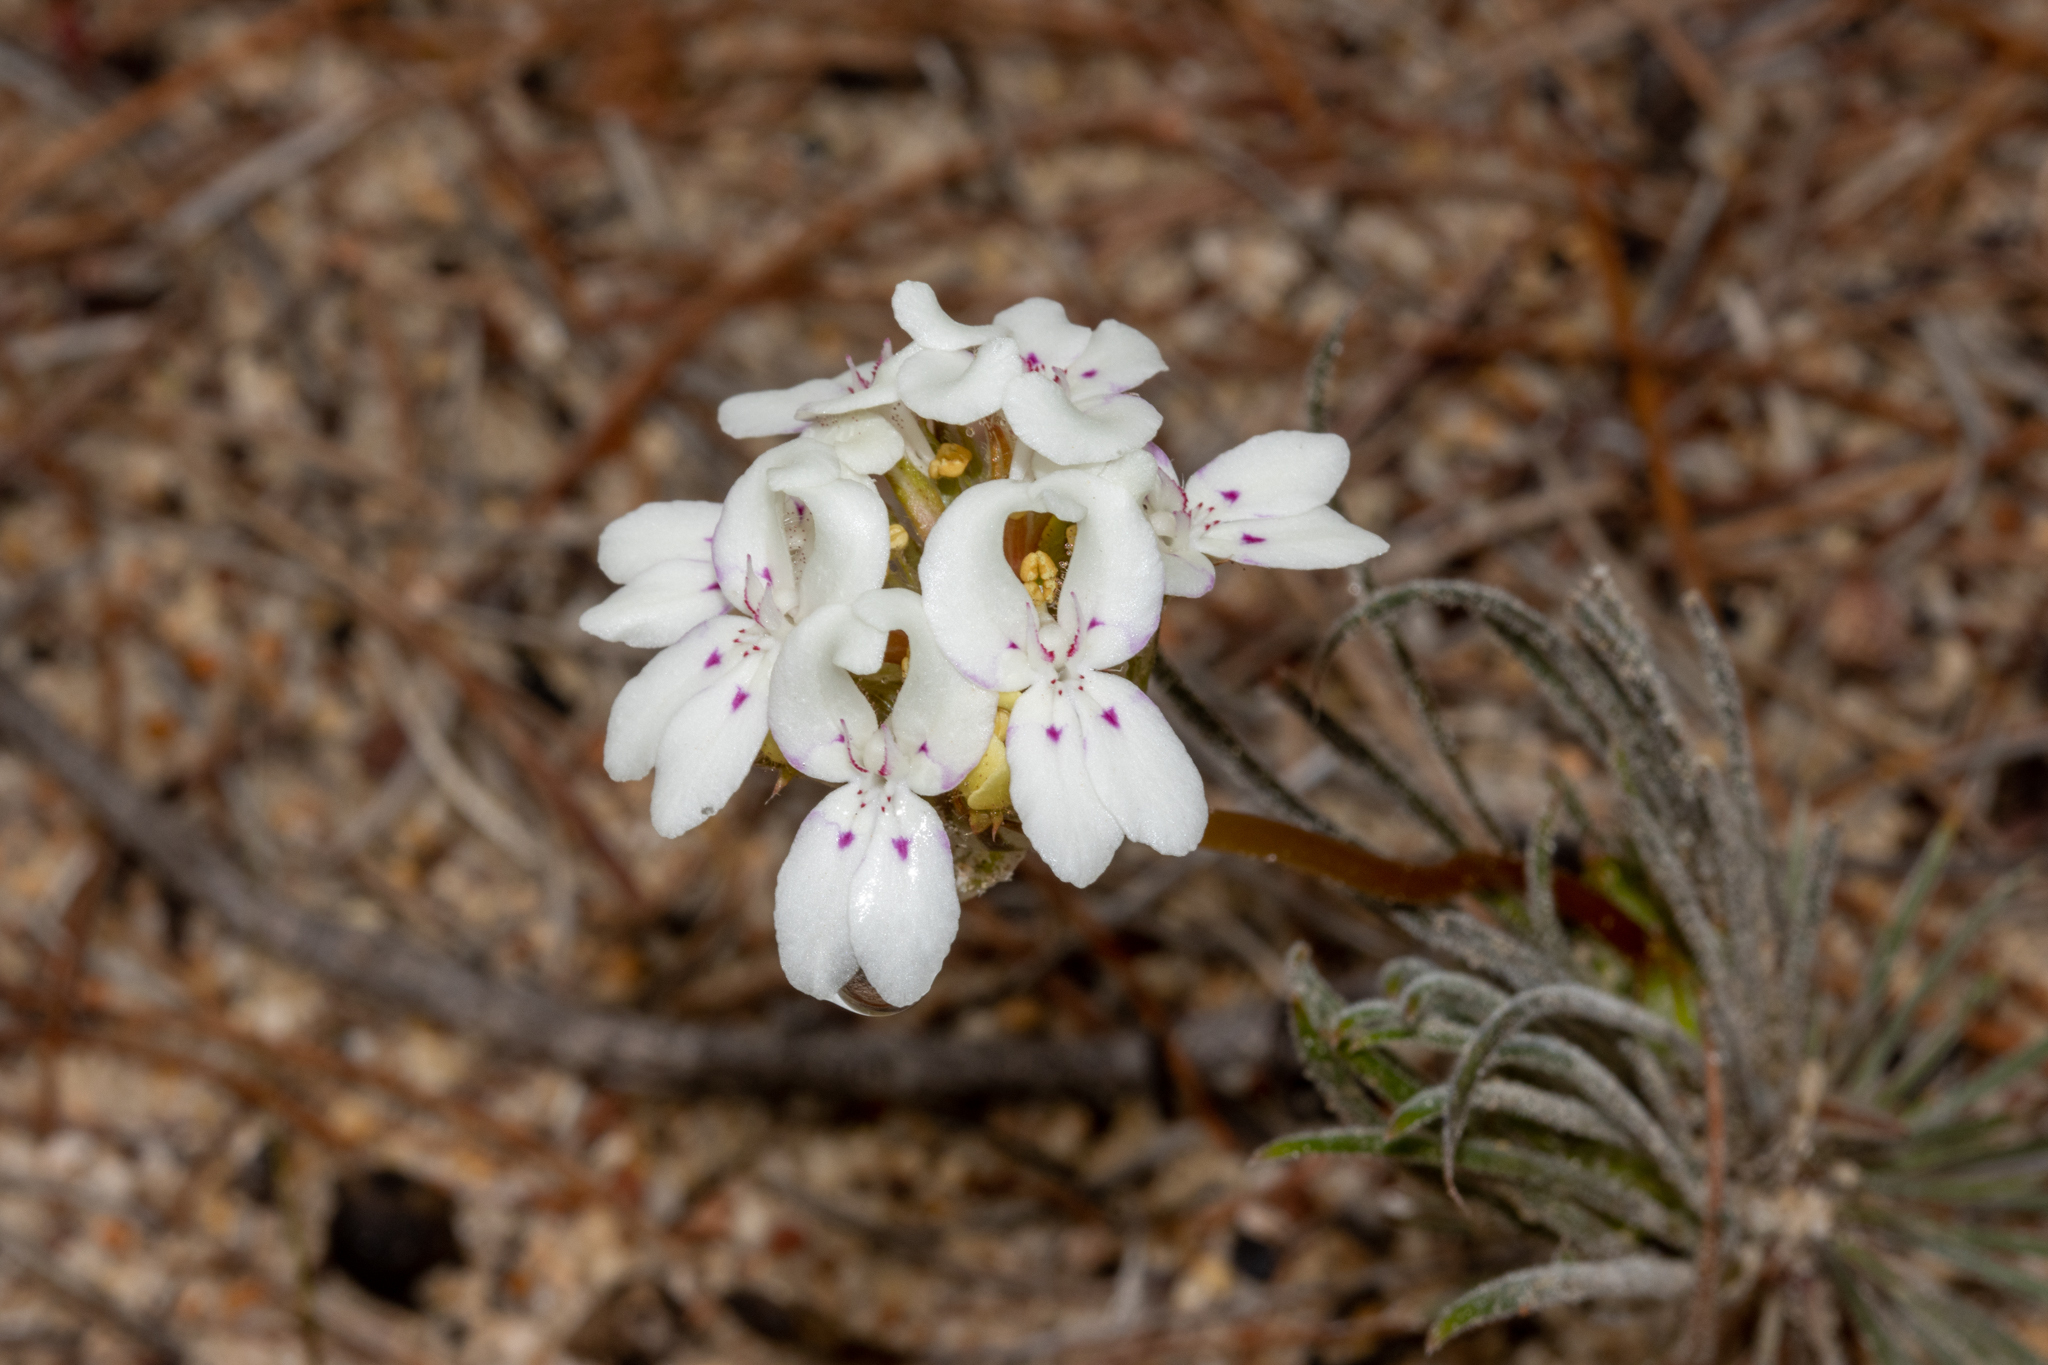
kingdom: Plantae
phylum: Tracheophyta
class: Magnoliopsida
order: Asterales
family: Stylidiaceae
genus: Stylidium
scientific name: Stylidium crossocephalum
